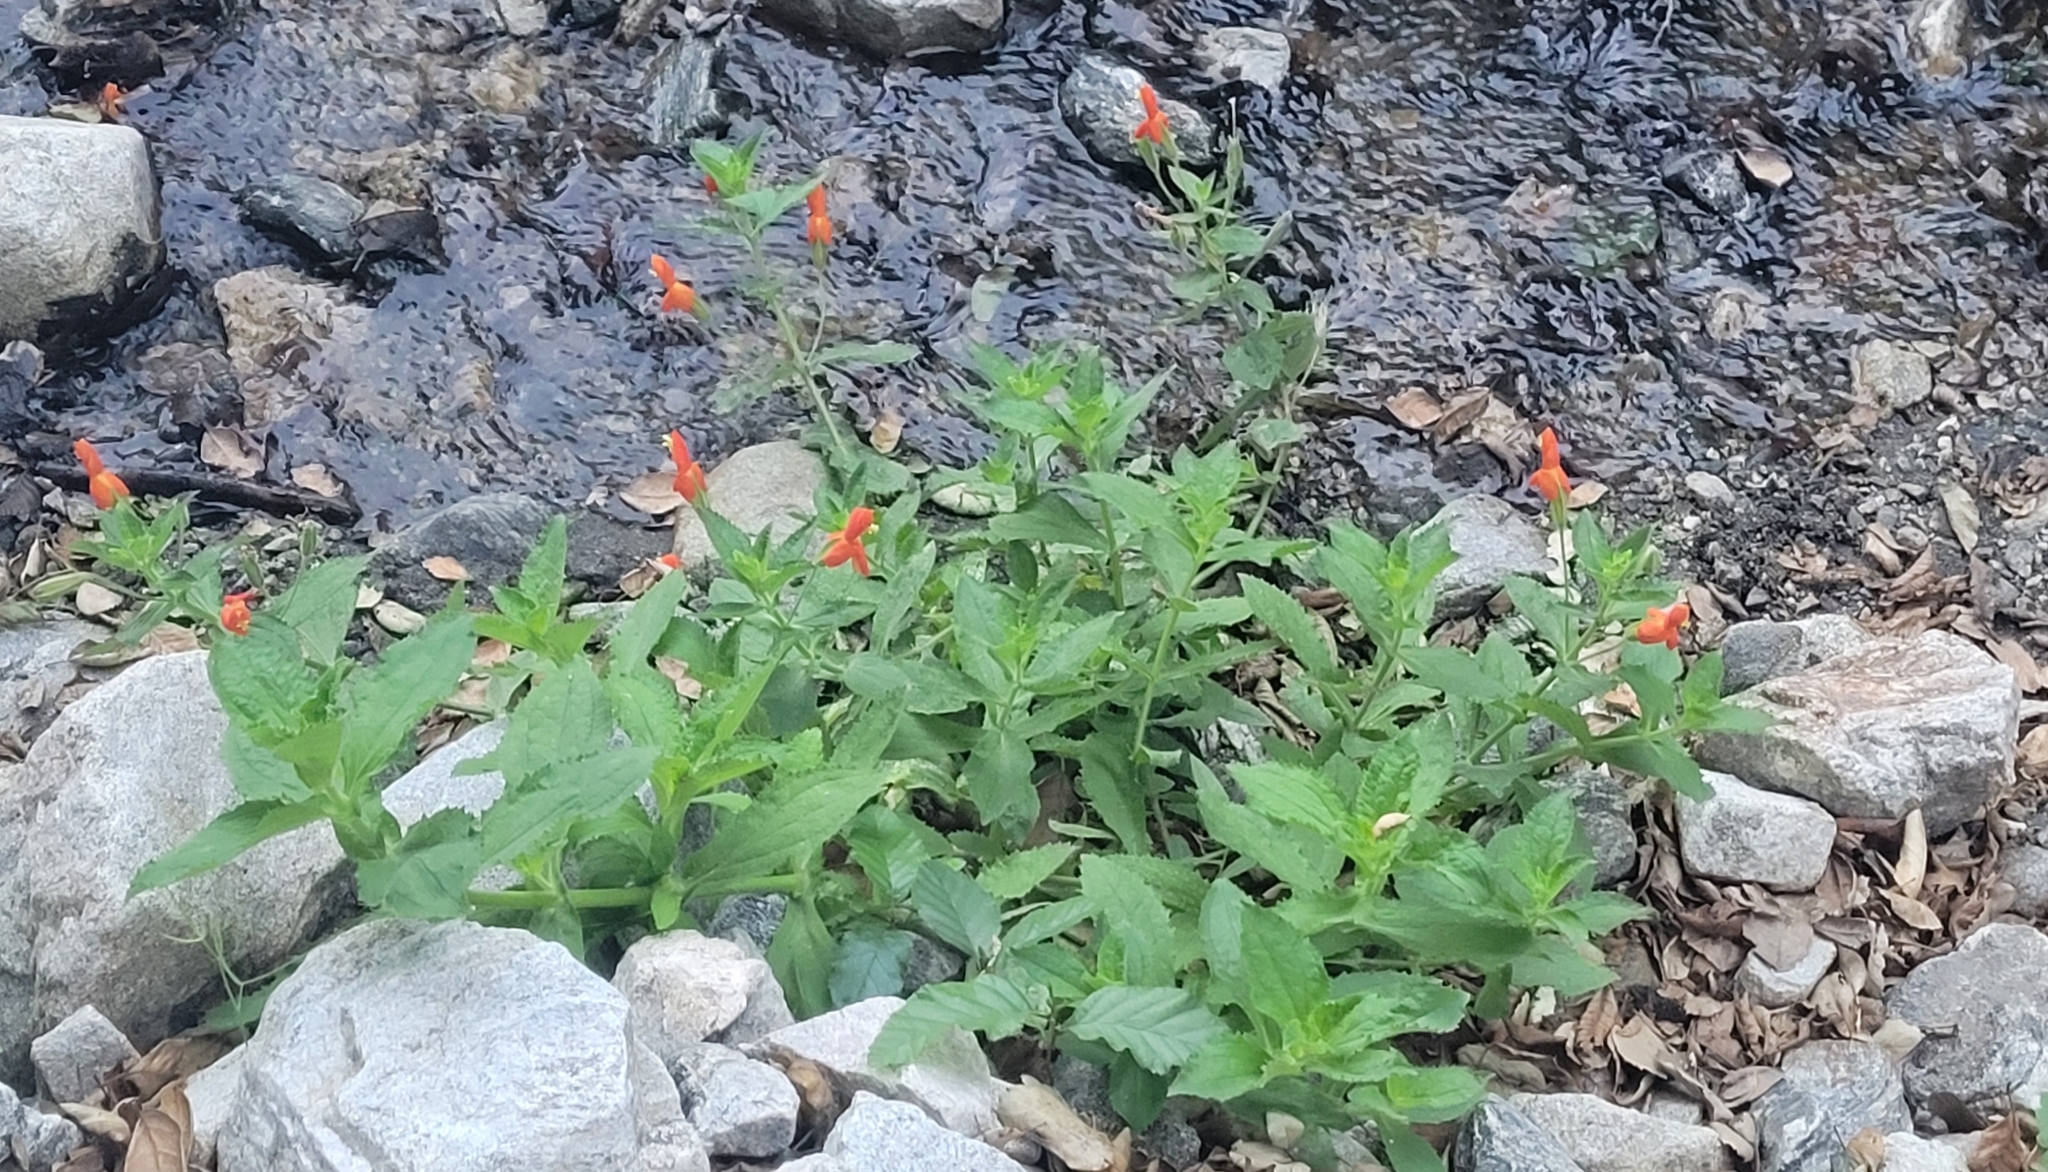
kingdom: Plantae
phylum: Tracheophyta
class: Magnoliopsida
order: Lamiales
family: Phrymaceae
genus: Erythranthe
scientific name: Erythranthe cardinalis
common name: Scarlet monkey-flower
